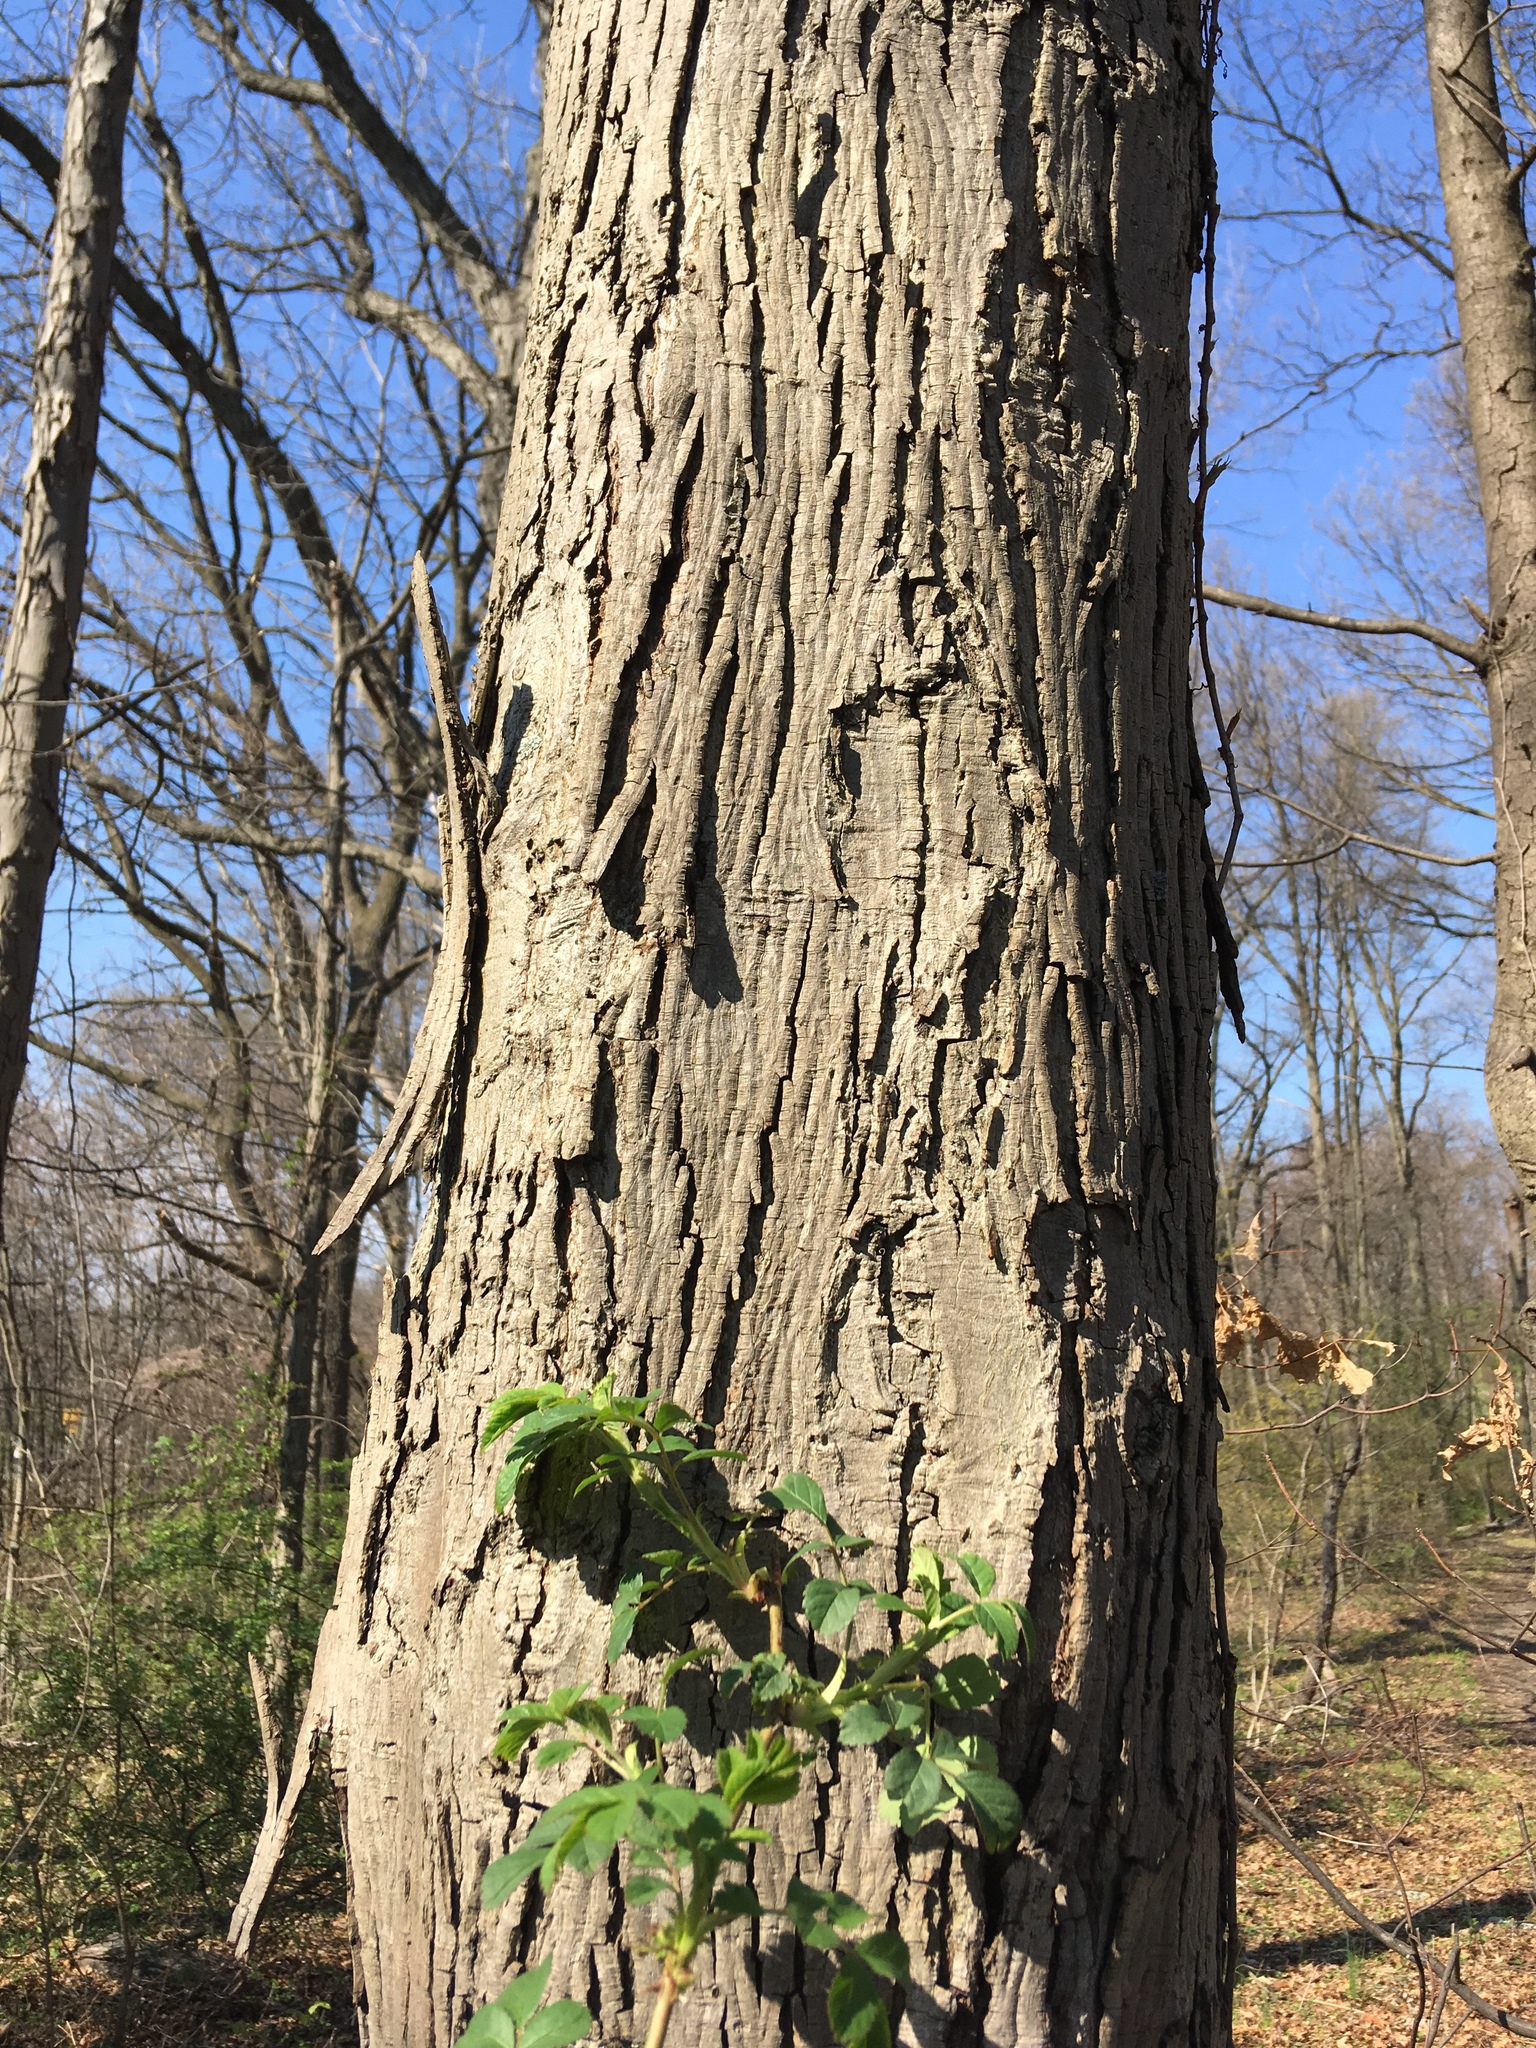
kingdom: Plantae
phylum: Tracheophyta
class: Magnoliopsida
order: Fagales
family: Juglandaceae
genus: Carya
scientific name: Carya ovata
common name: Shagbark hickory
